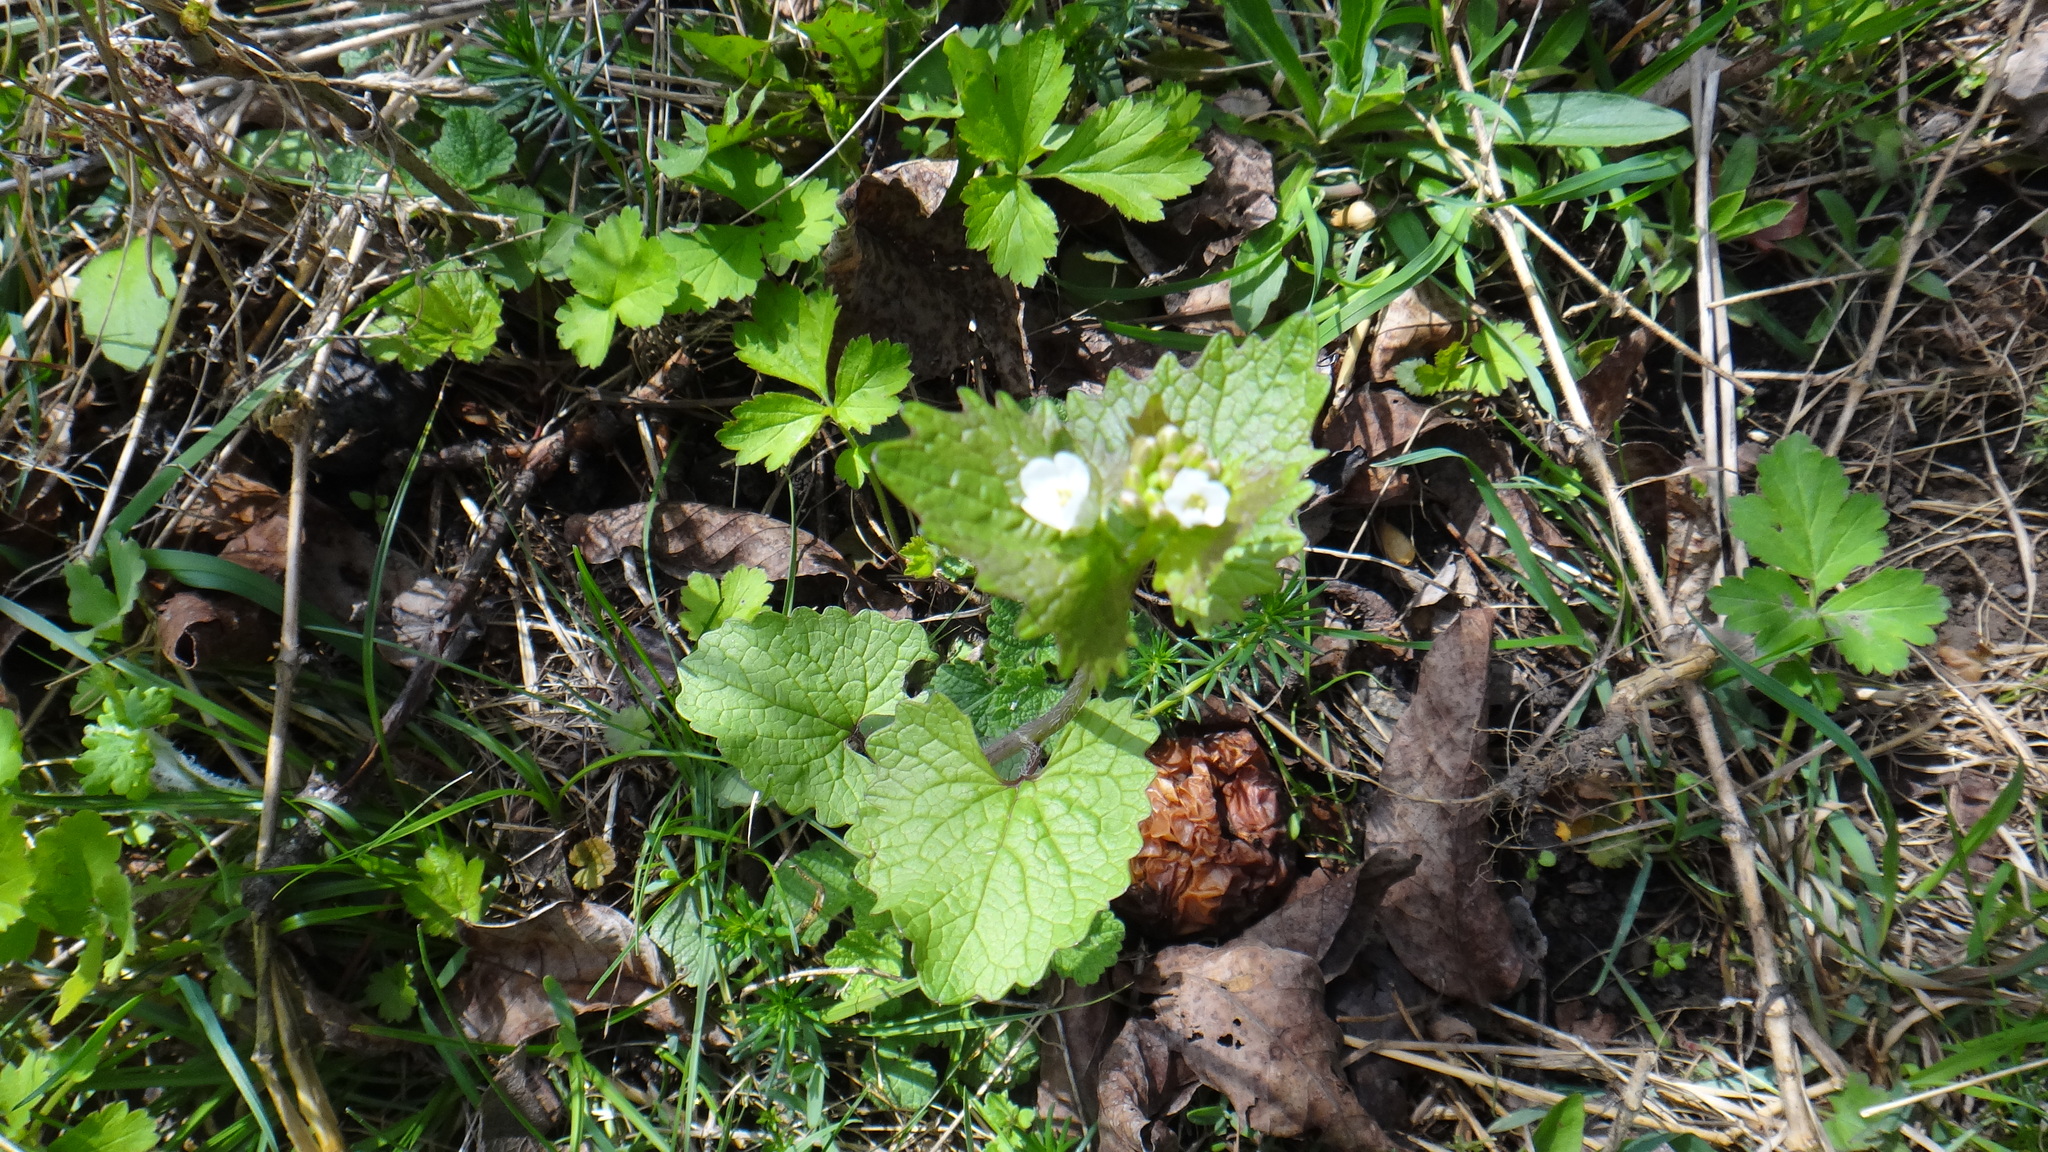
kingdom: Plantae
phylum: Tracheophyta
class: Magnoliopsida
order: Brassicales
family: Brassicaceae
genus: Alliaria
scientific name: Alliaria petiolata
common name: Garlic mustard
